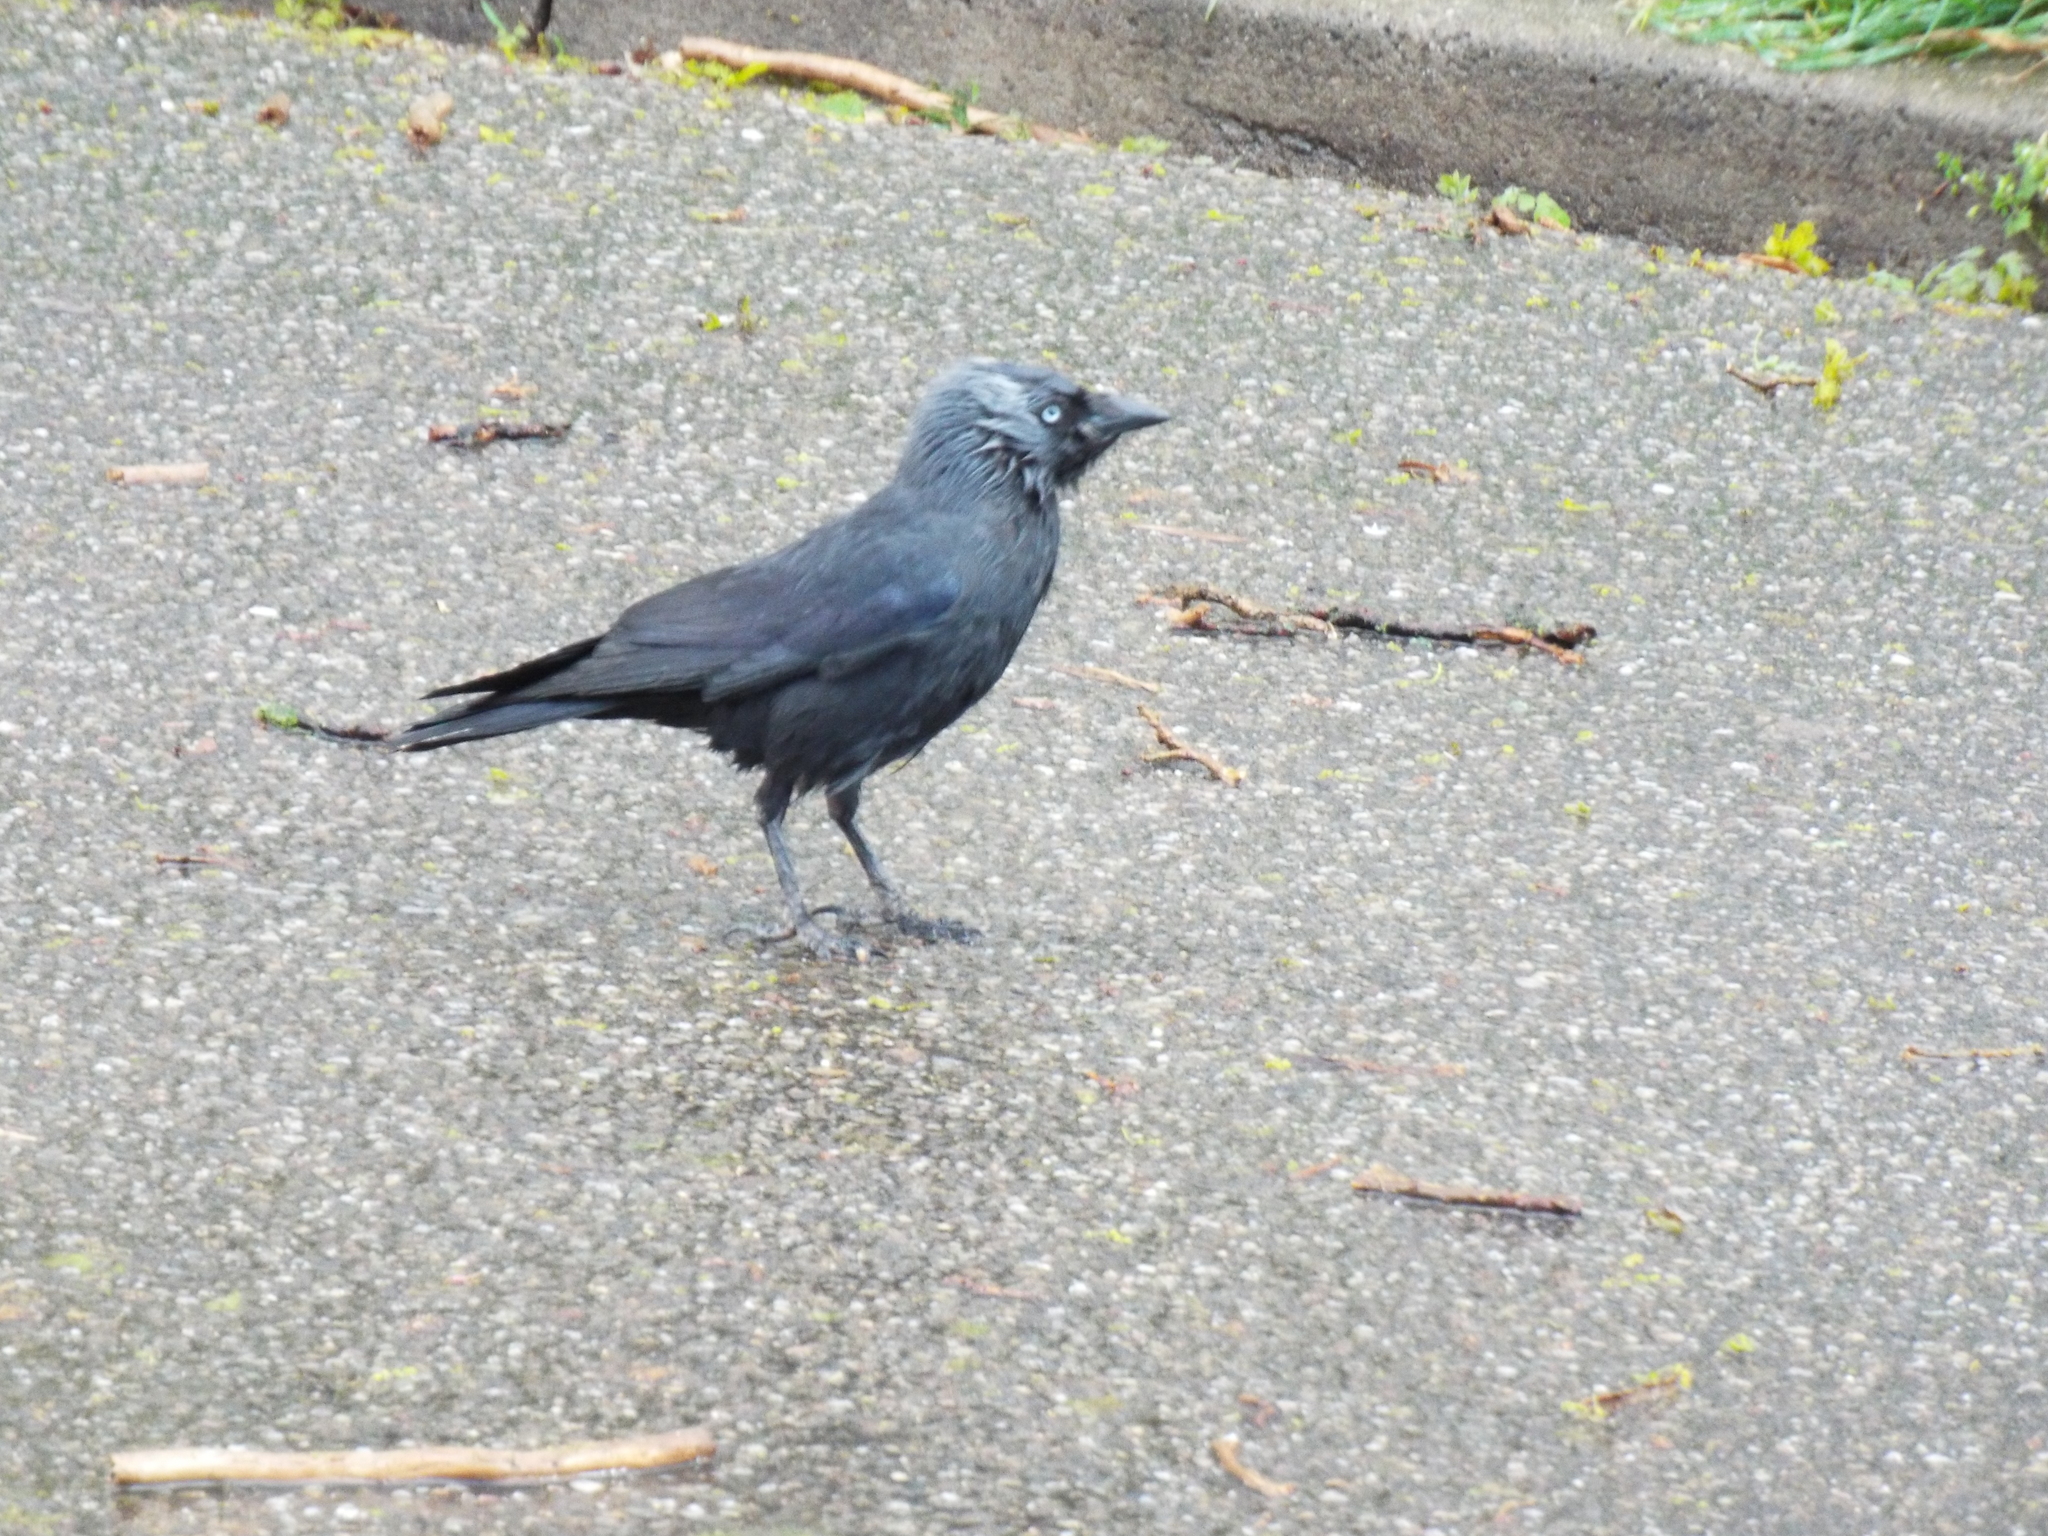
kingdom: Animalia
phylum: Chordata
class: Aves
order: Passeriformes
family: Corvidae
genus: Coloeus
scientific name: Coloeus monedula
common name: Western jackdaw
